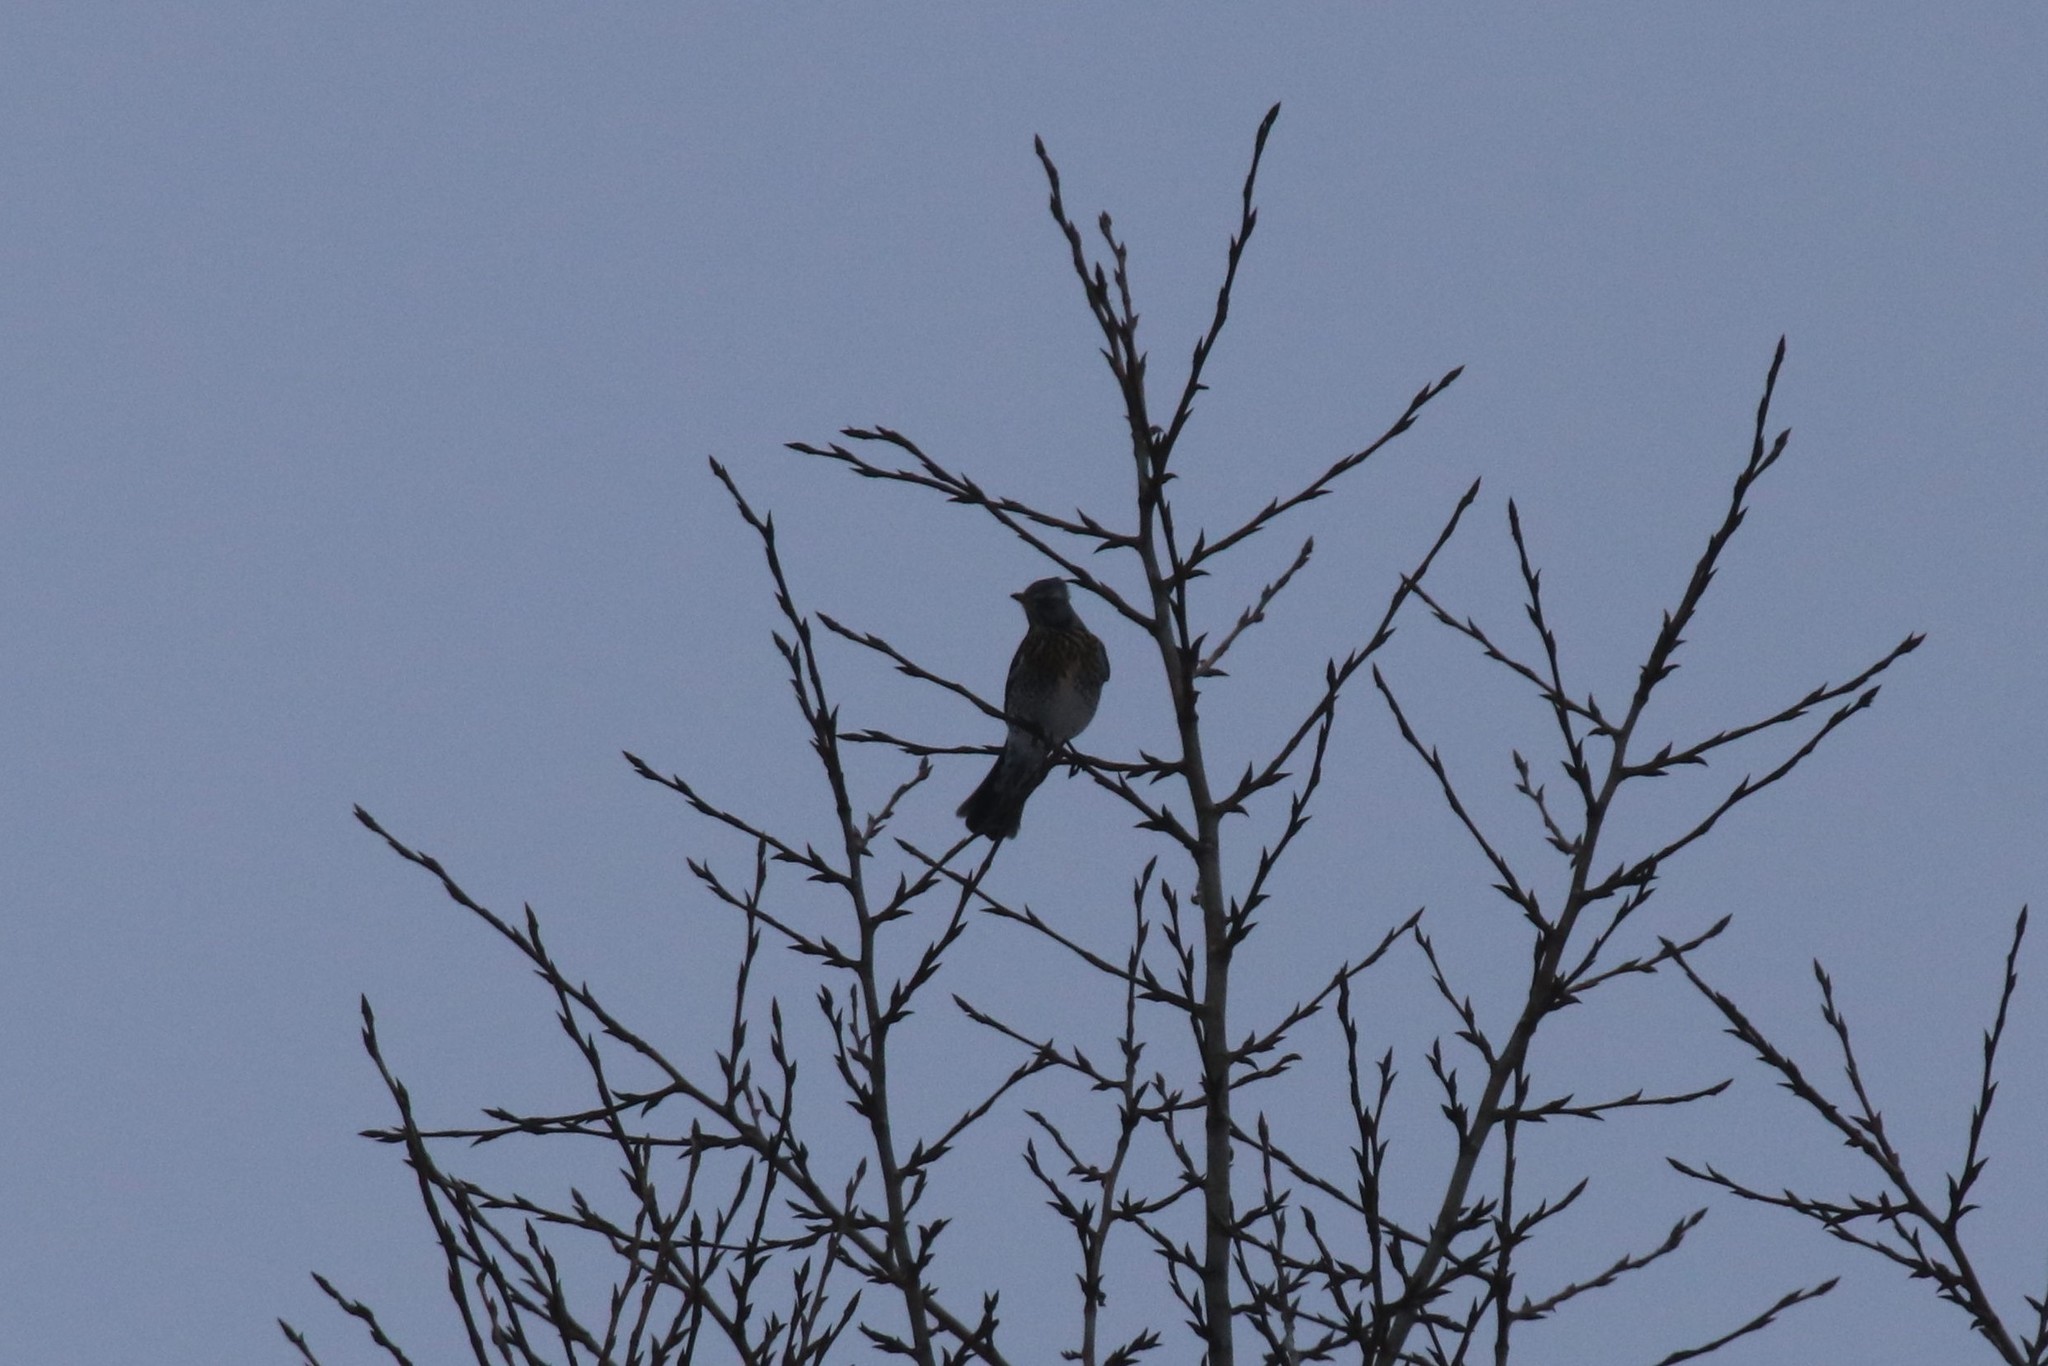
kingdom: Animalia
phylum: Chordata
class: Aves
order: Passeriformes
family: Turdidae
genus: Turdus
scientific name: Turdus pilaris
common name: Fieldfare
